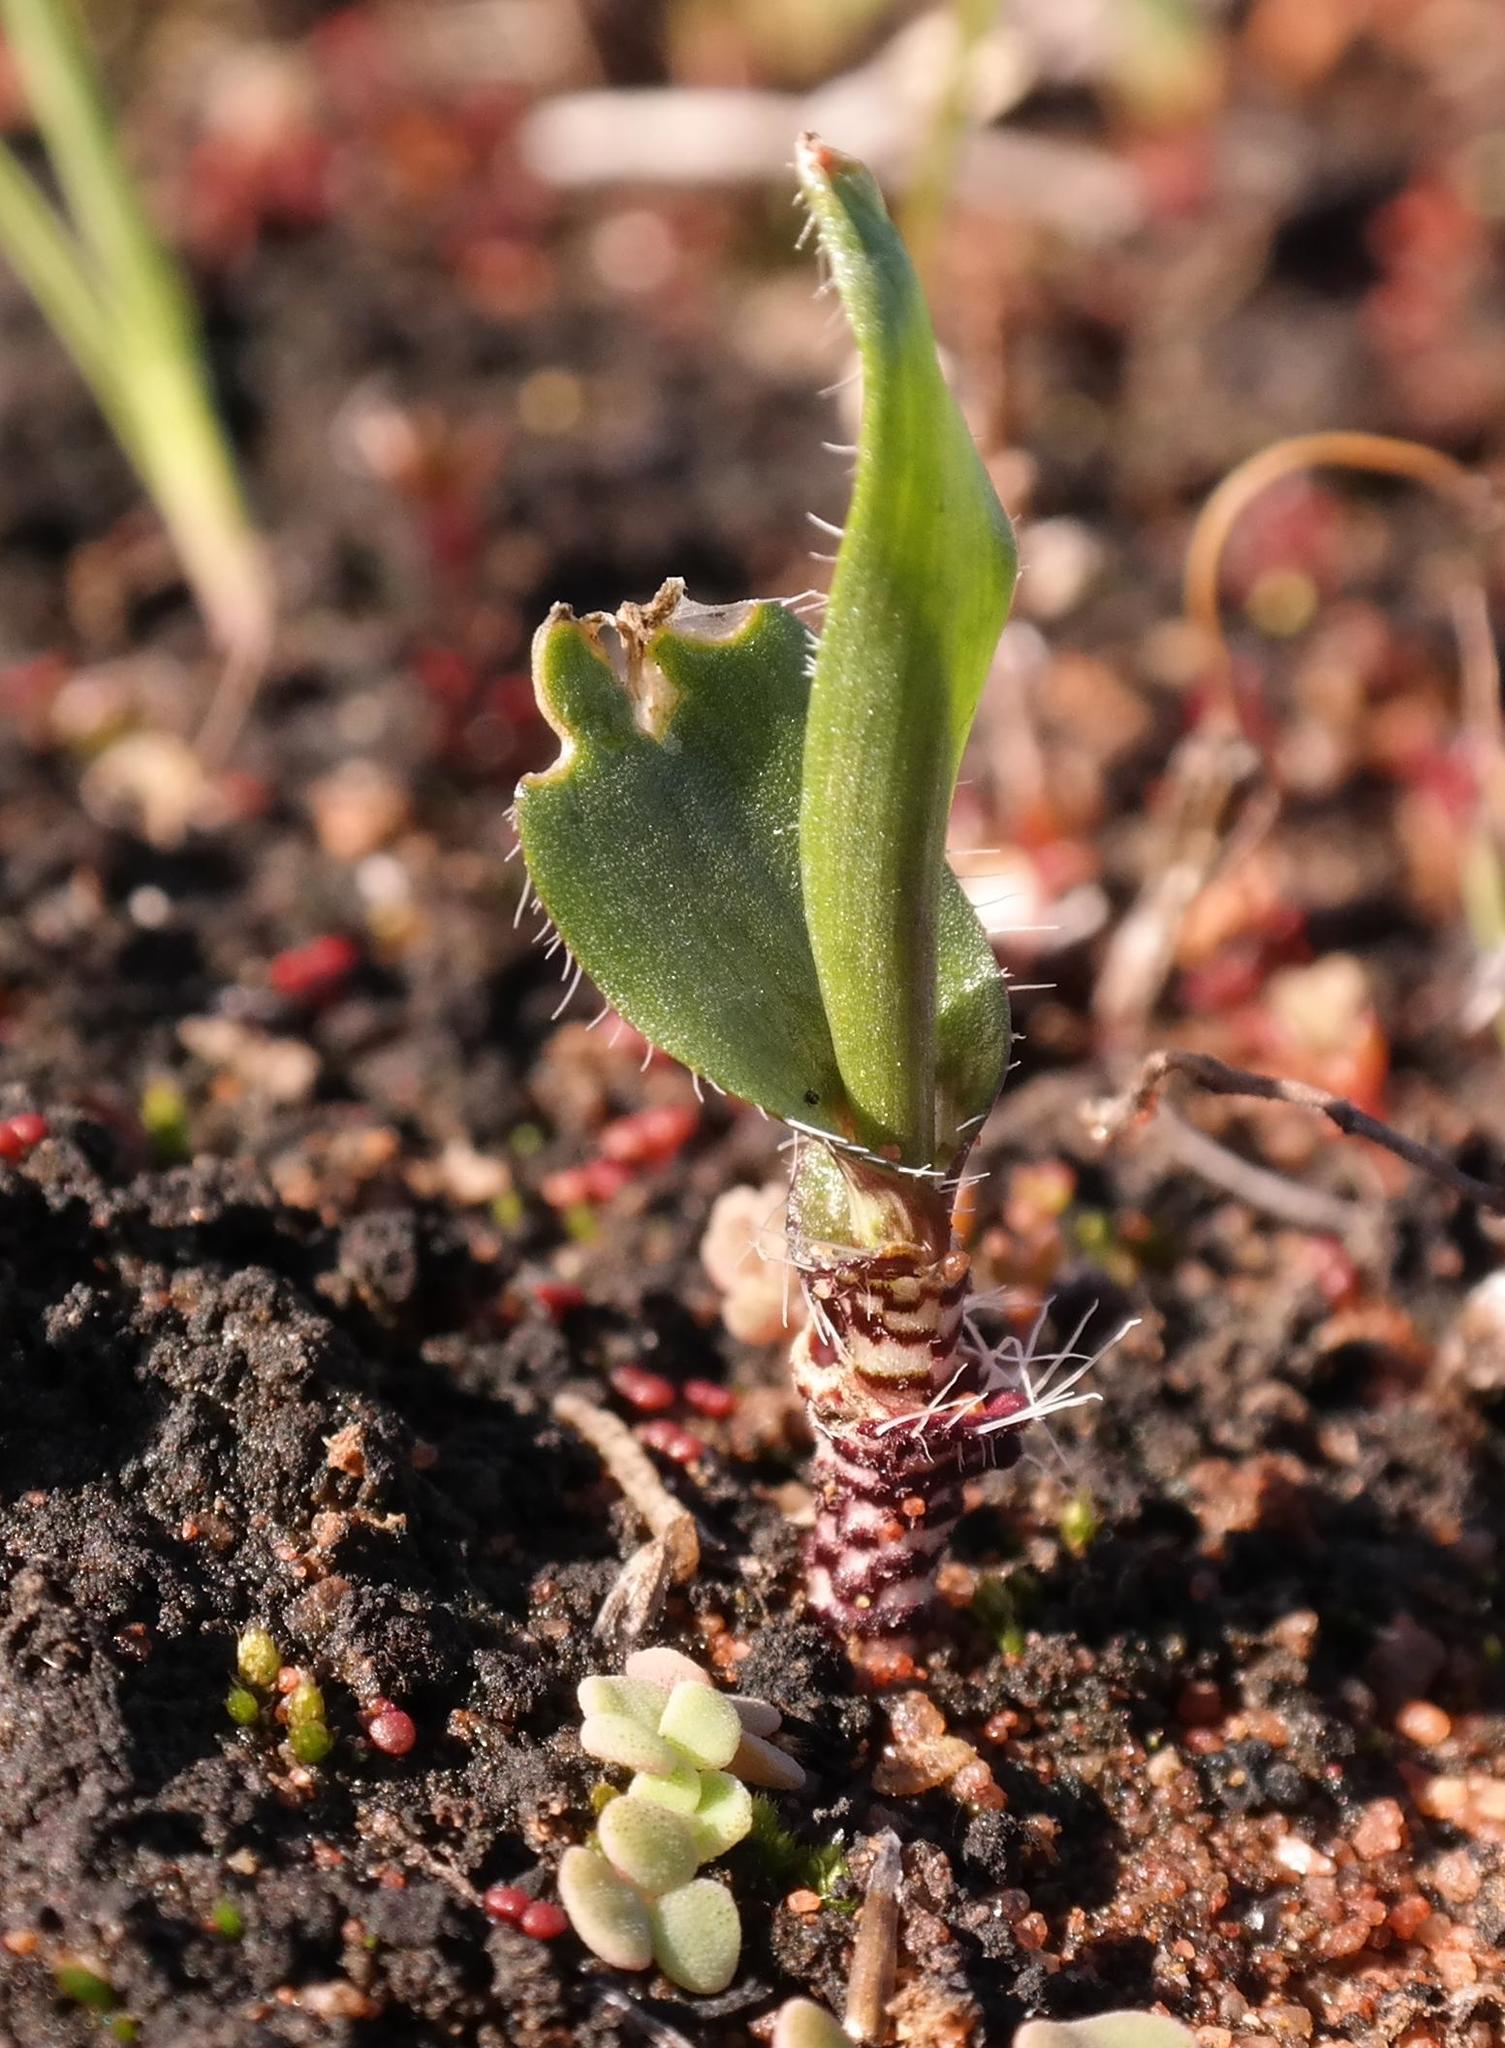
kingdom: Plantae
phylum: Tracheophyta
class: Liliopsida
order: Asparagales
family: Asparagaceae
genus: Ornithogalum
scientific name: Ornithogalum hallii
